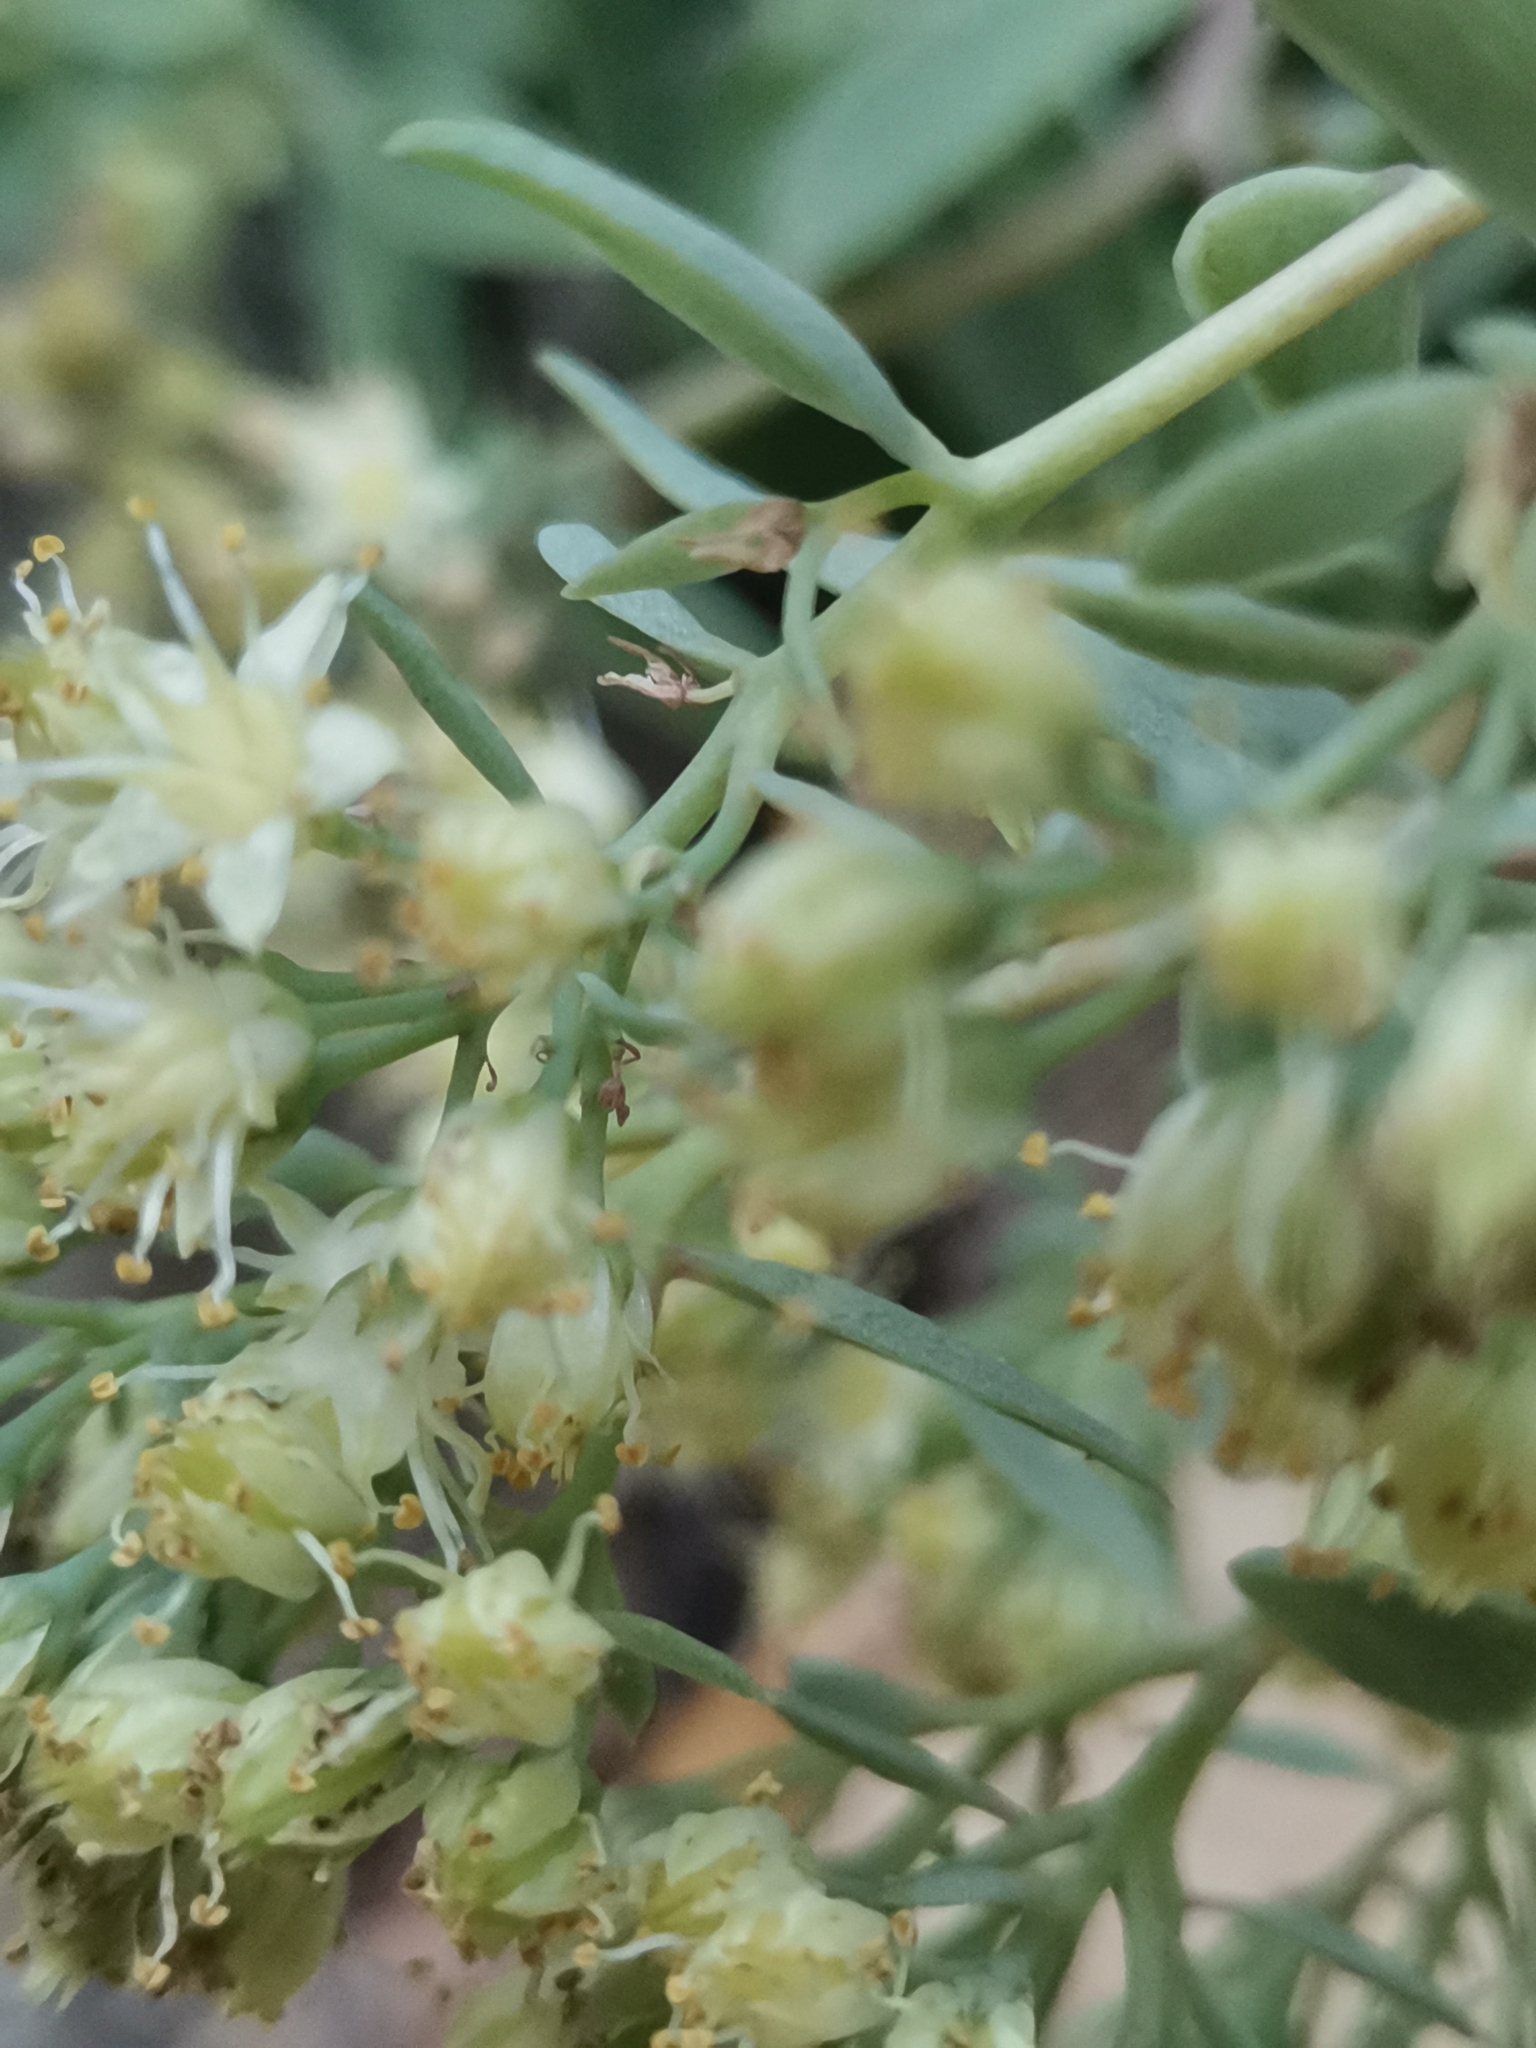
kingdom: Plantae
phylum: Tracheophyta
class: Magnoliopsida
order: Saxifragales
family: Crassulaceae
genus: Hylotelephium
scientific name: Hylotelephium maximum
